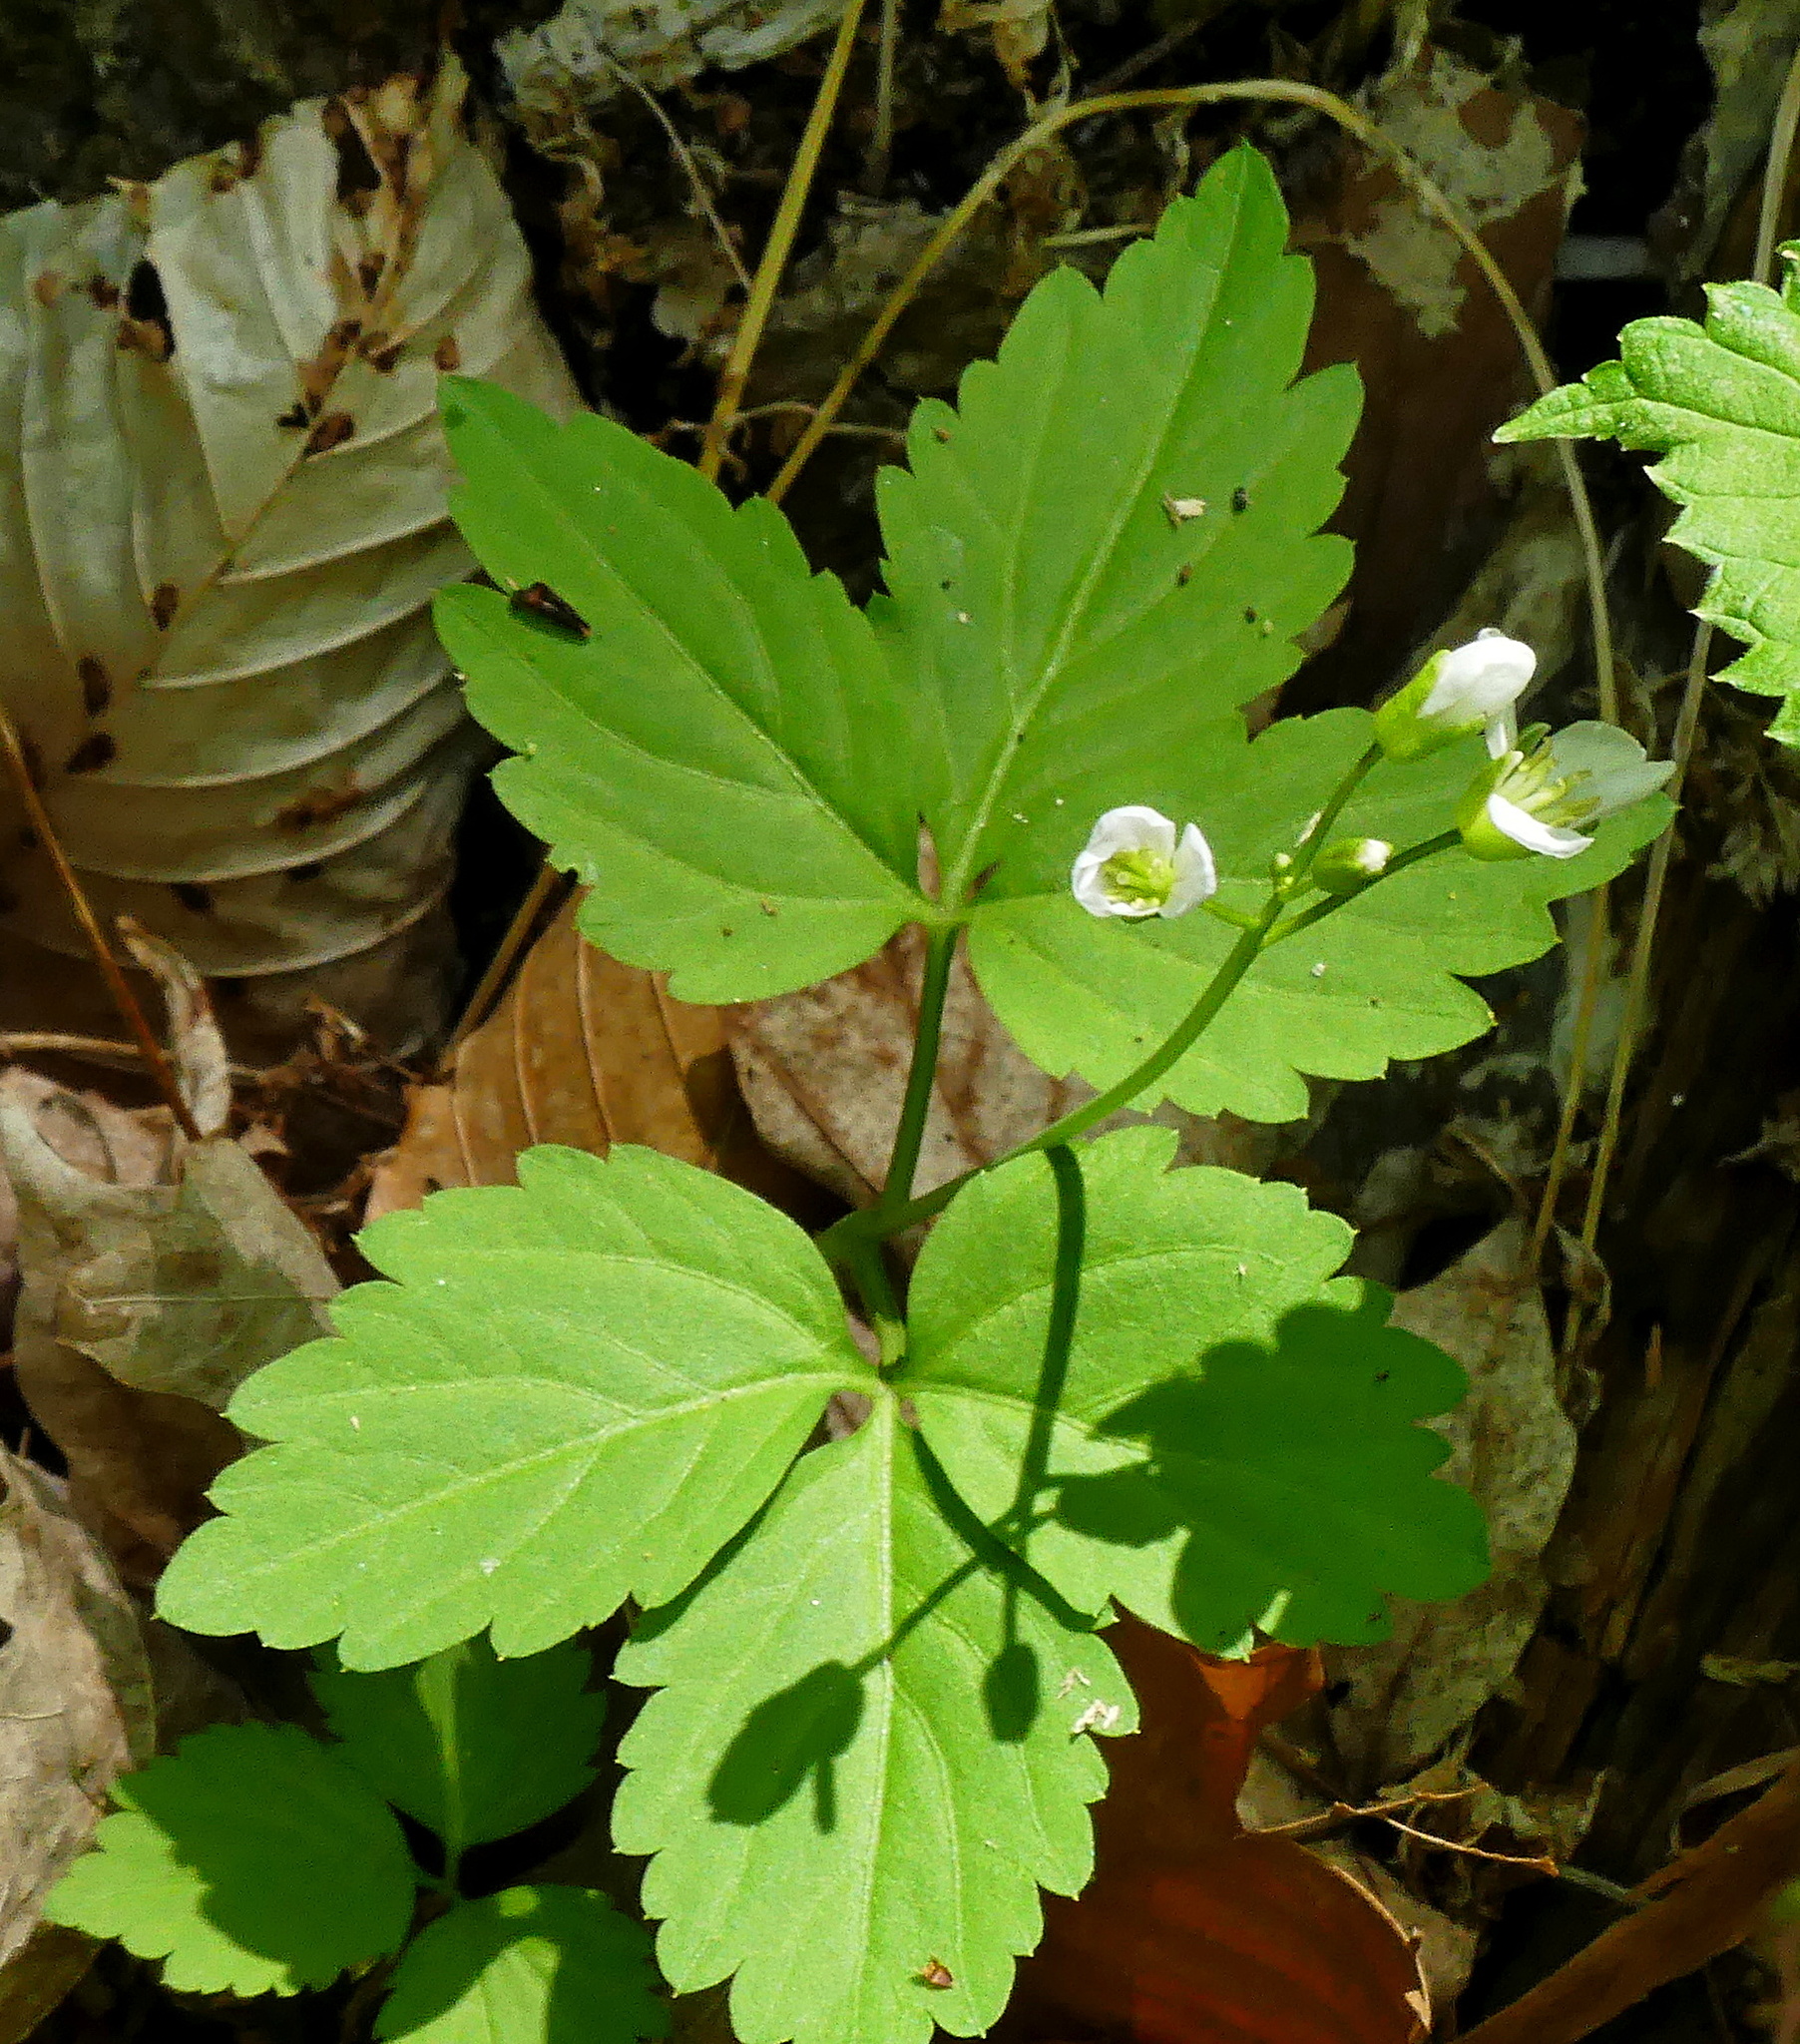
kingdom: Plantae
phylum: Tracheophyta
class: Magnoliopsida
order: Brassicales
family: Brassicaceae
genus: Cardamine
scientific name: Cardamine diphylla
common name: Broad-leaved toothwort
